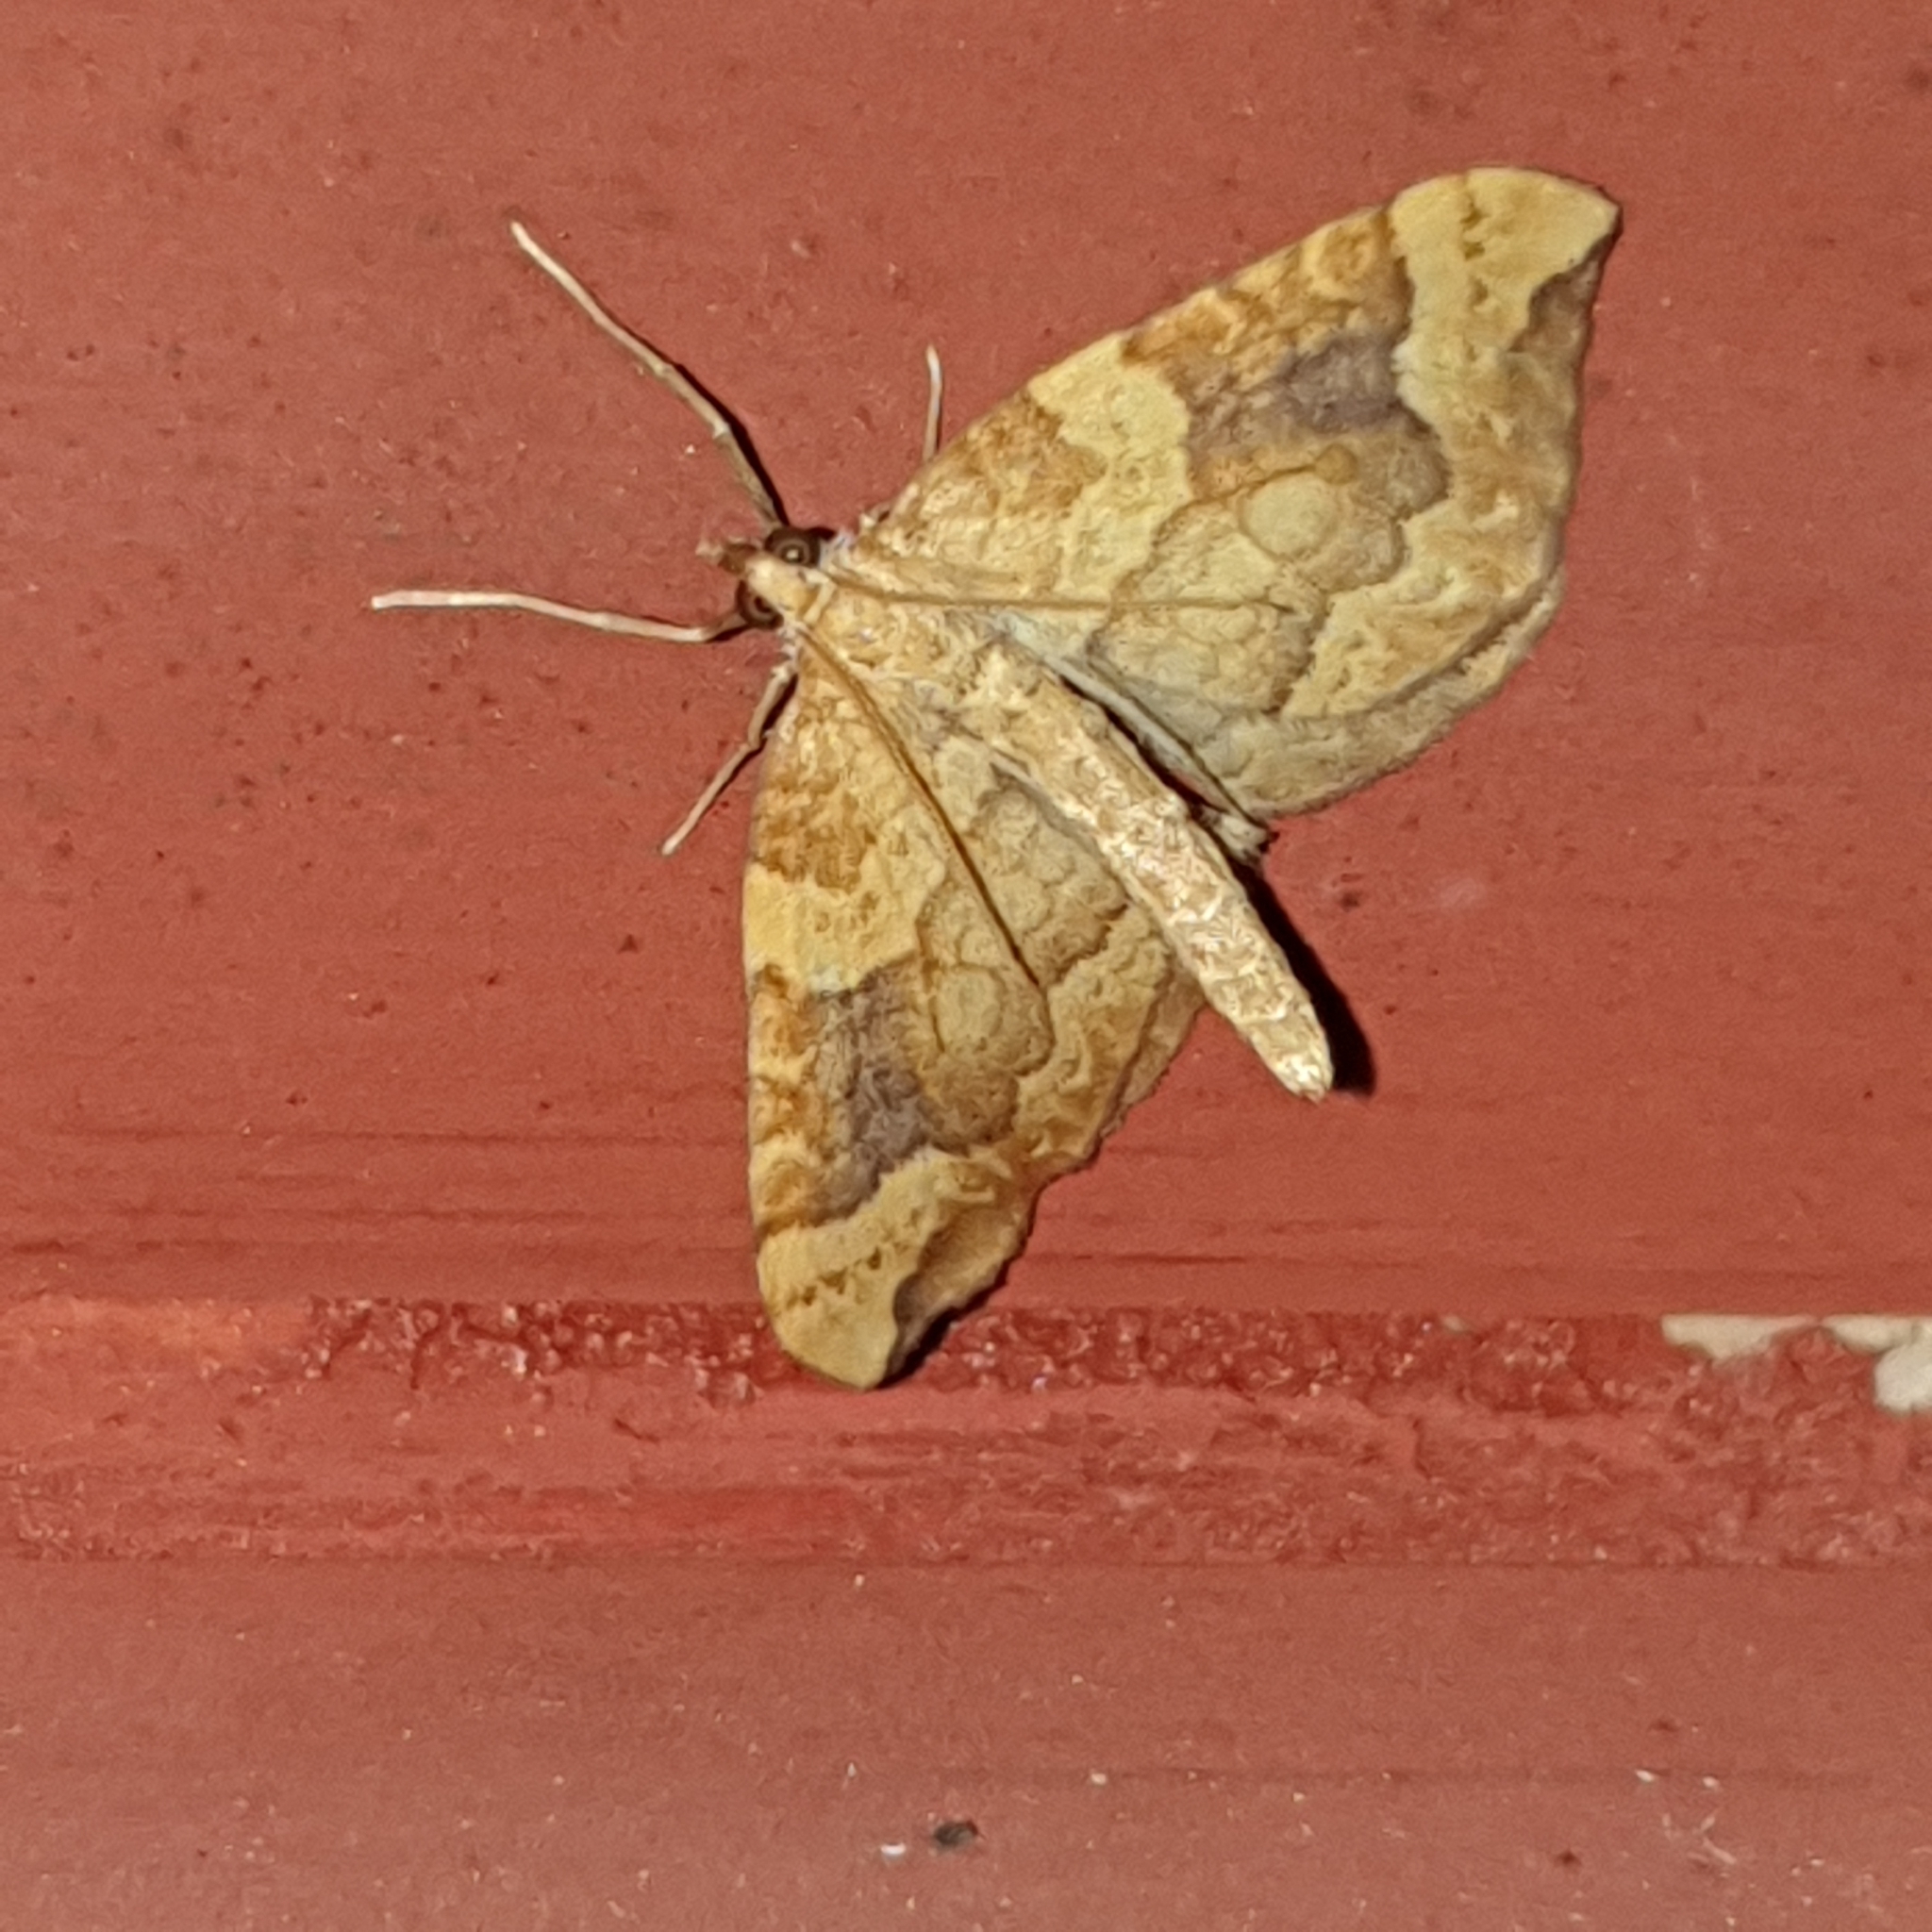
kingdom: Animalia
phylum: Arthropoda
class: Insecta
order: Lepidoptera
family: Geometridae
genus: Eulithis
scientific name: Eulithis populata
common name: Northern spinach
